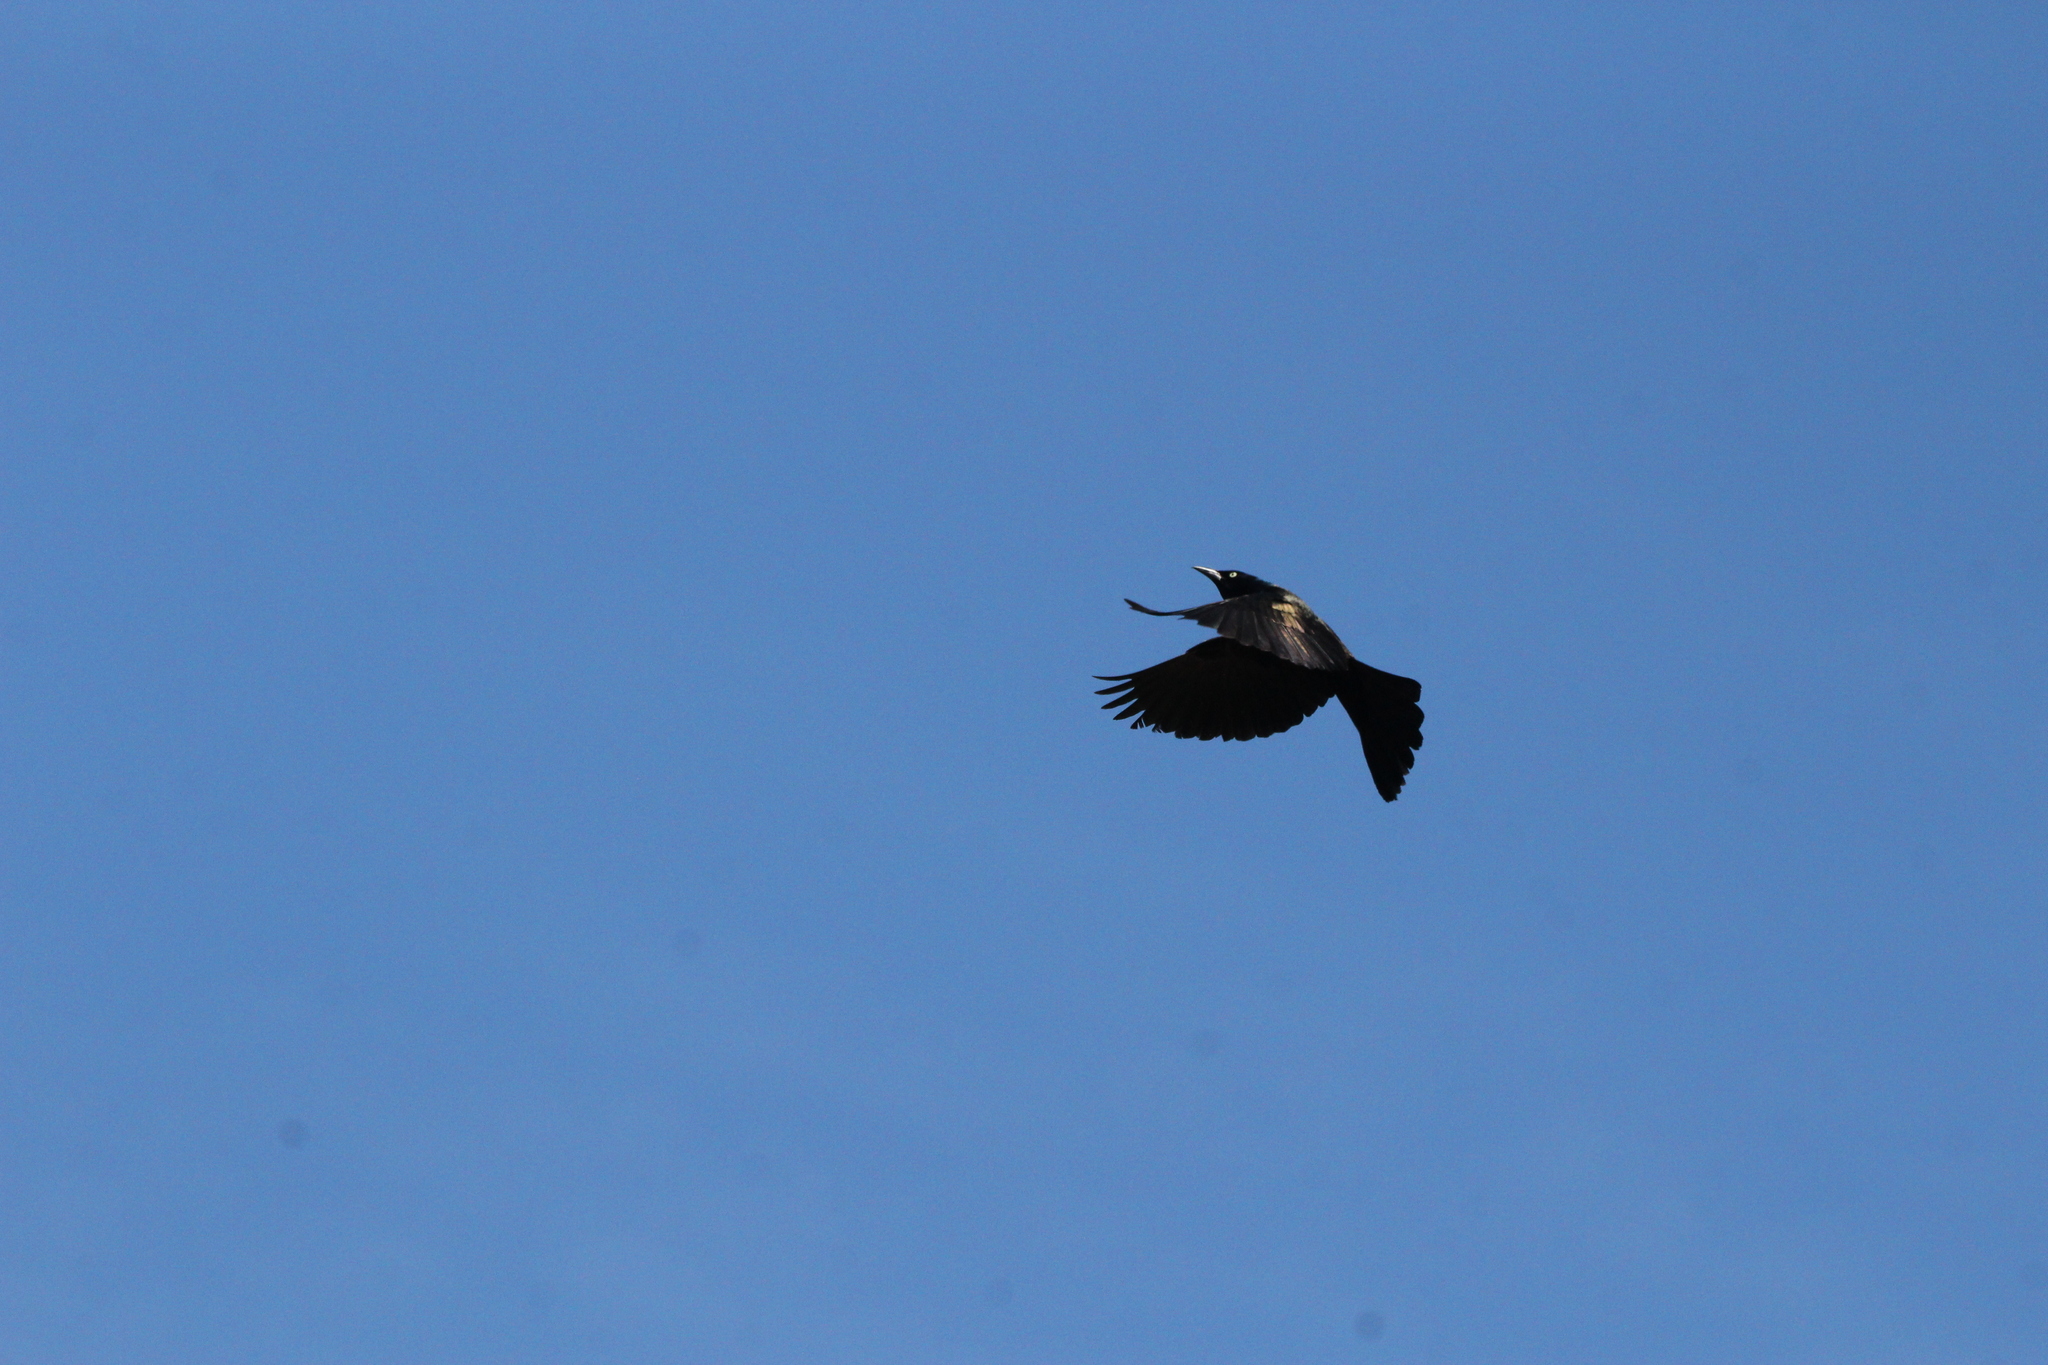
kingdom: Animalia
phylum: Chordata
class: Aves
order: Passeriformes
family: Icteridae
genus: Quiscalus
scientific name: Quiscalus quiscula
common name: Common grackle
